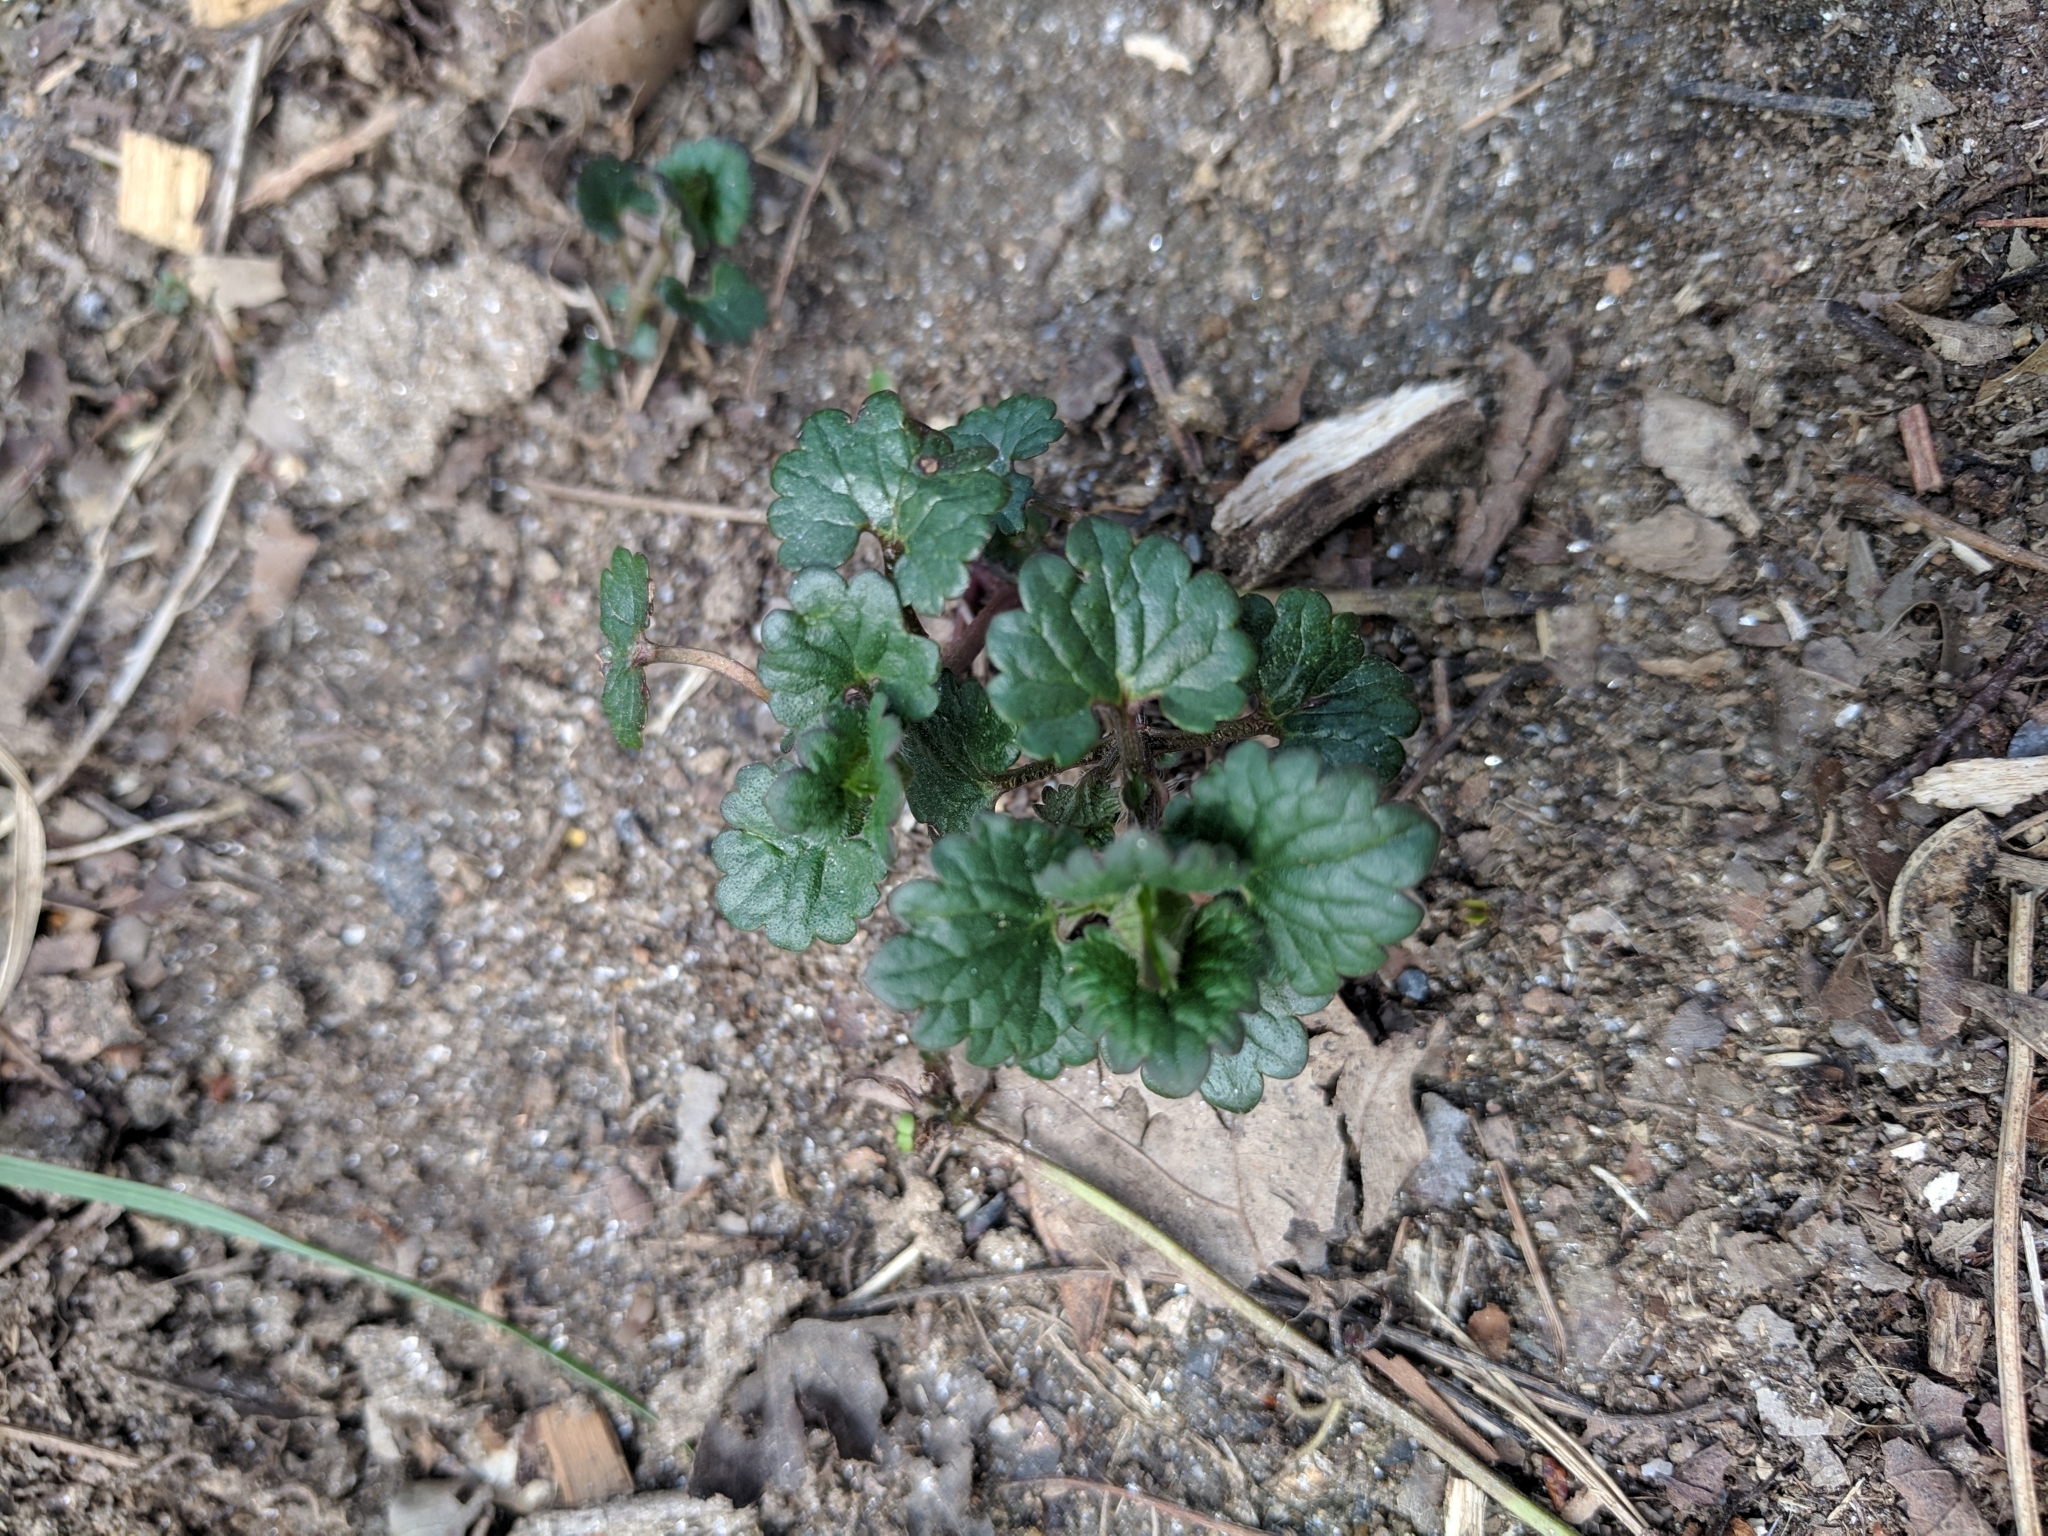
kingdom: Plantae
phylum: Tracheophyta
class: Magnoliopsida
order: Lamiales
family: Lamiaceae
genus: Glechoma
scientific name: Glechoma hederacea
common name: Ground ivy
